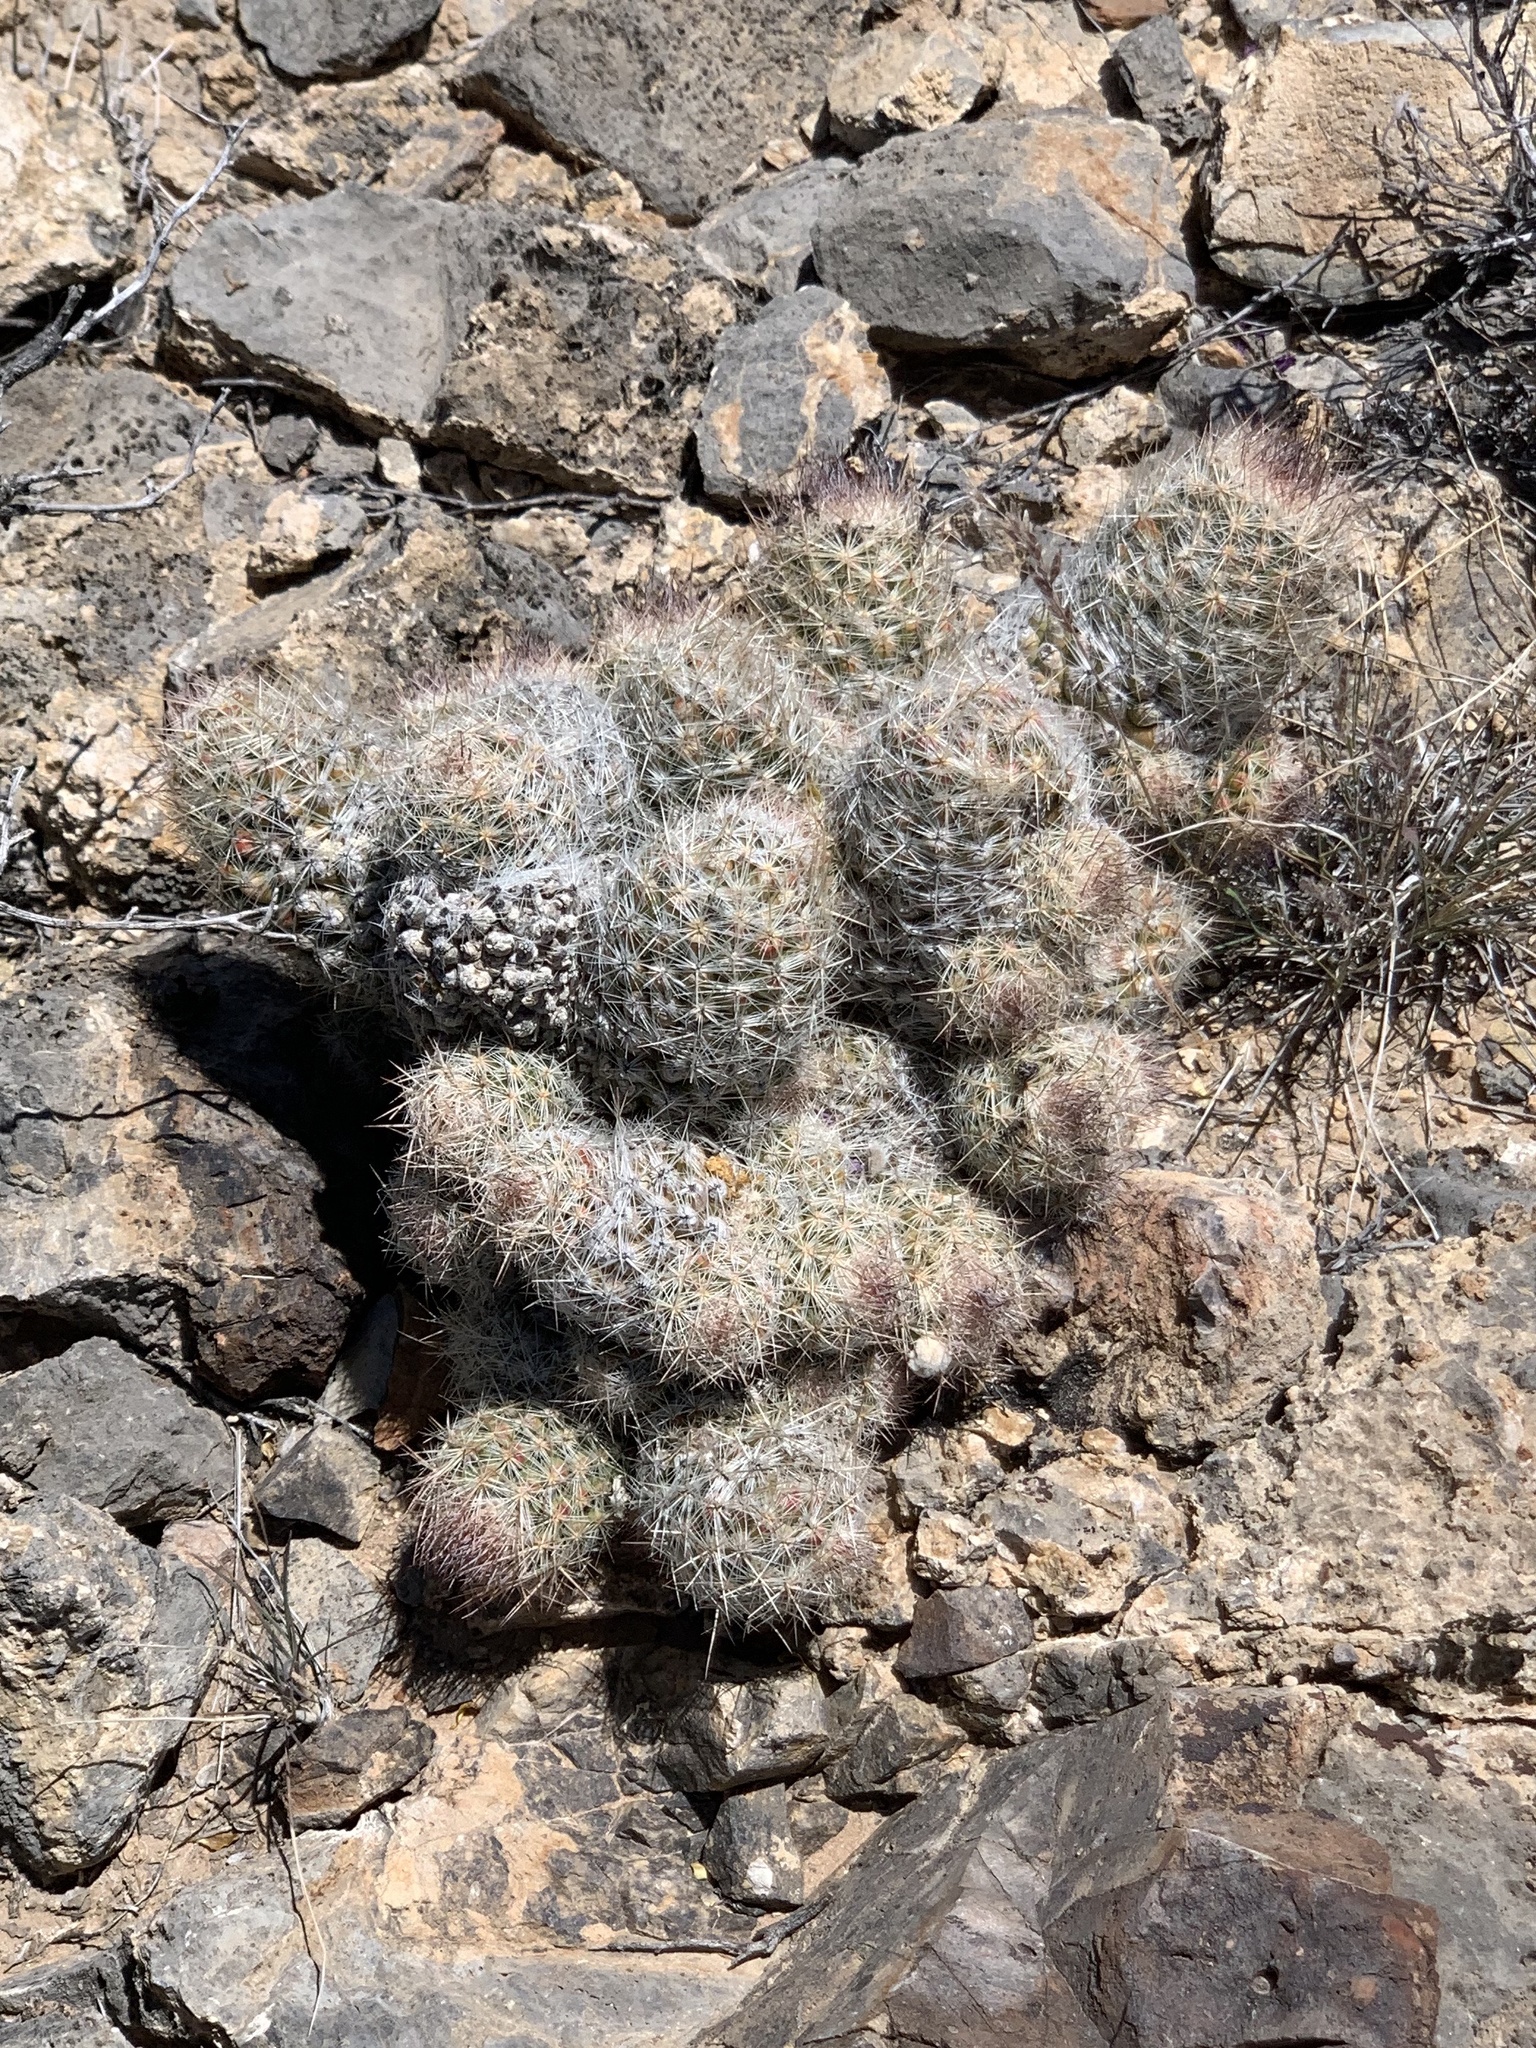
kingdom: Plantae
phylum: Tracheophyta
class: Magnoliopsida
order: Caryophyllales
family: Cactaceae
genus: Pelecyphora
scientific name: Pelecyphora tuberculosa
